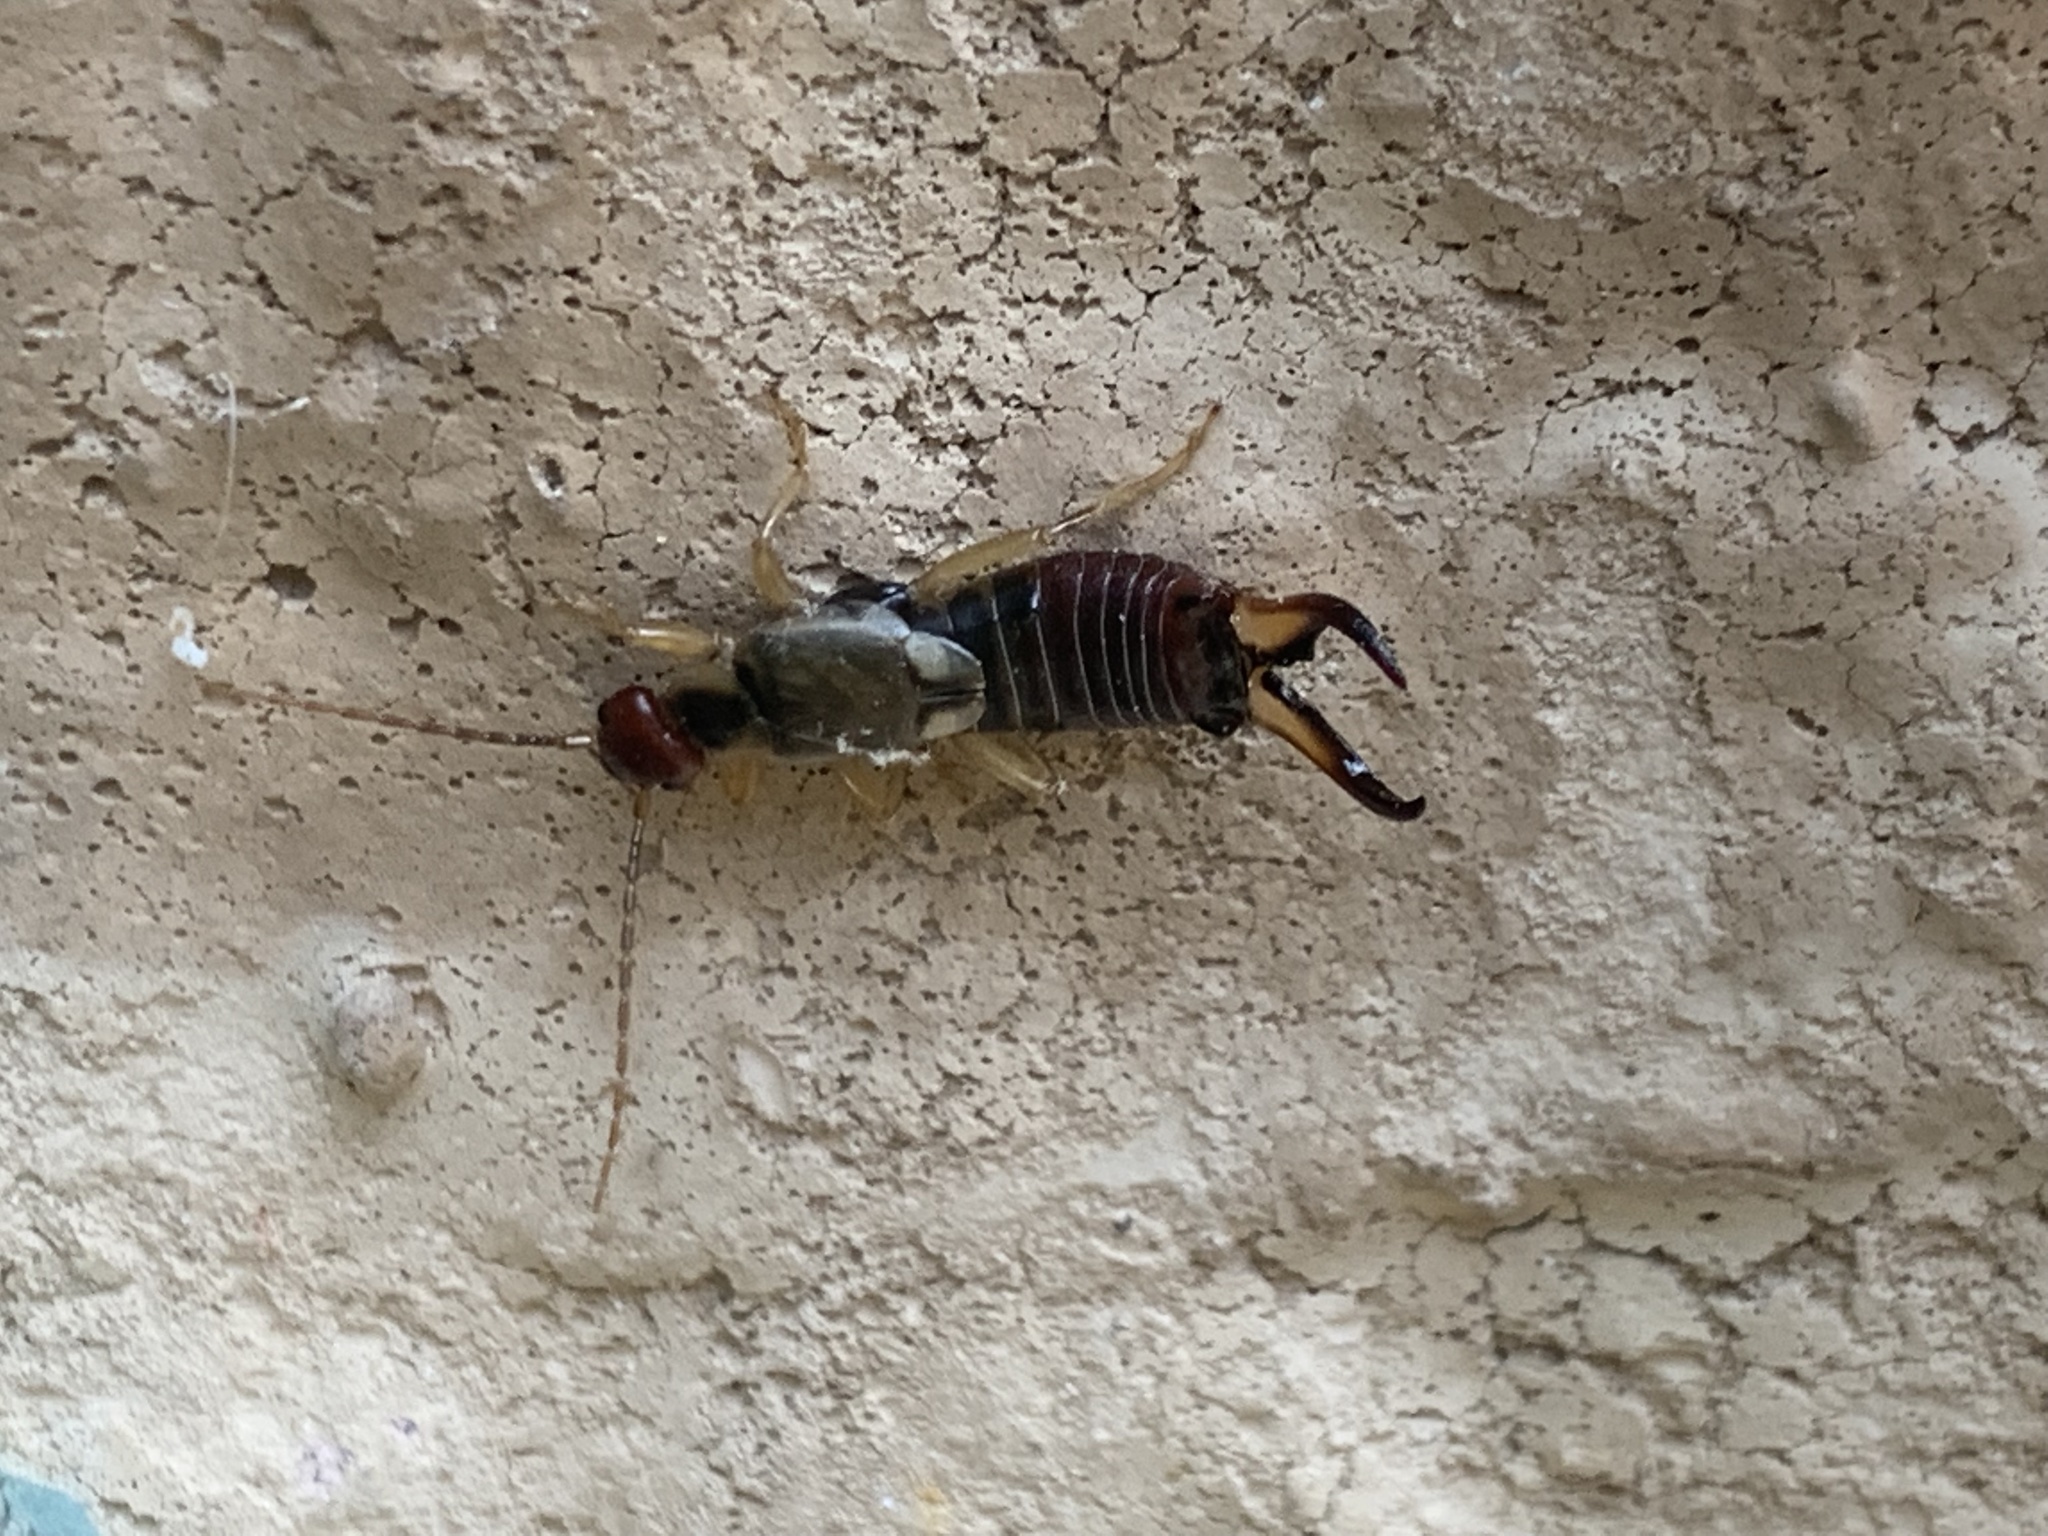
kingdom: Animalia
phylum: Arthropoda
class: Insecta
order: Dermaptera
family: Forficulidae
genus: Forficula
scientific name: Forficula
